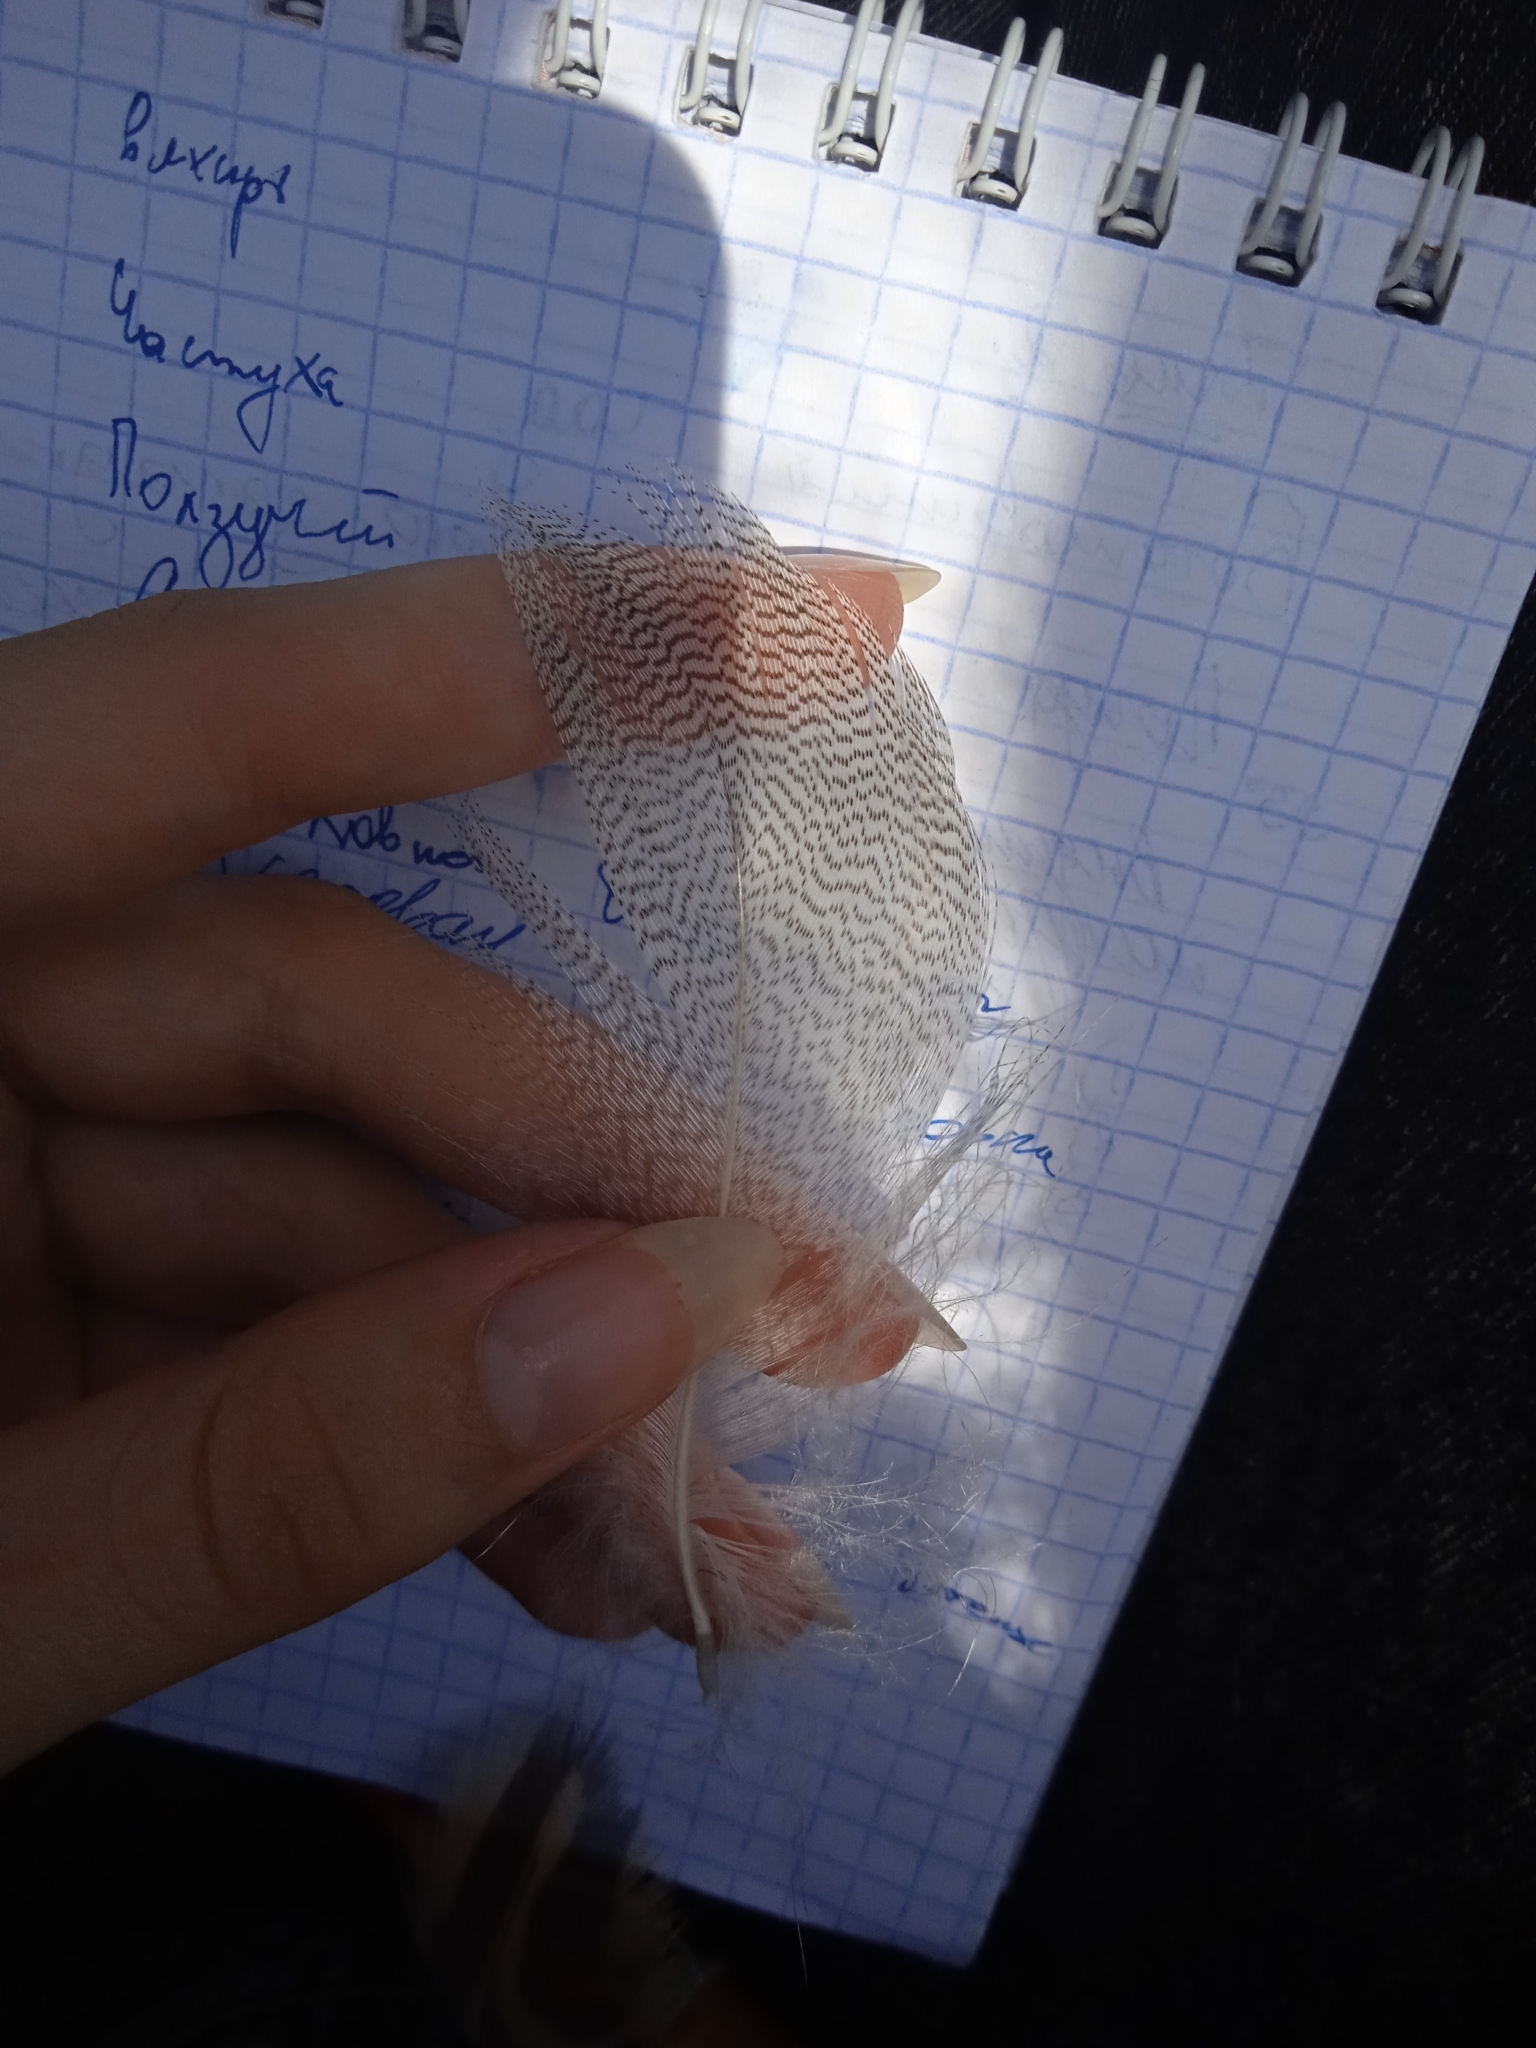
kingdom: Animalia
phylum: Chordata
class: Aves
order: Anseriformes
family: Anatidae
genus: Anas
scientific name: Anas platyrhynchos
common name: Mallard
